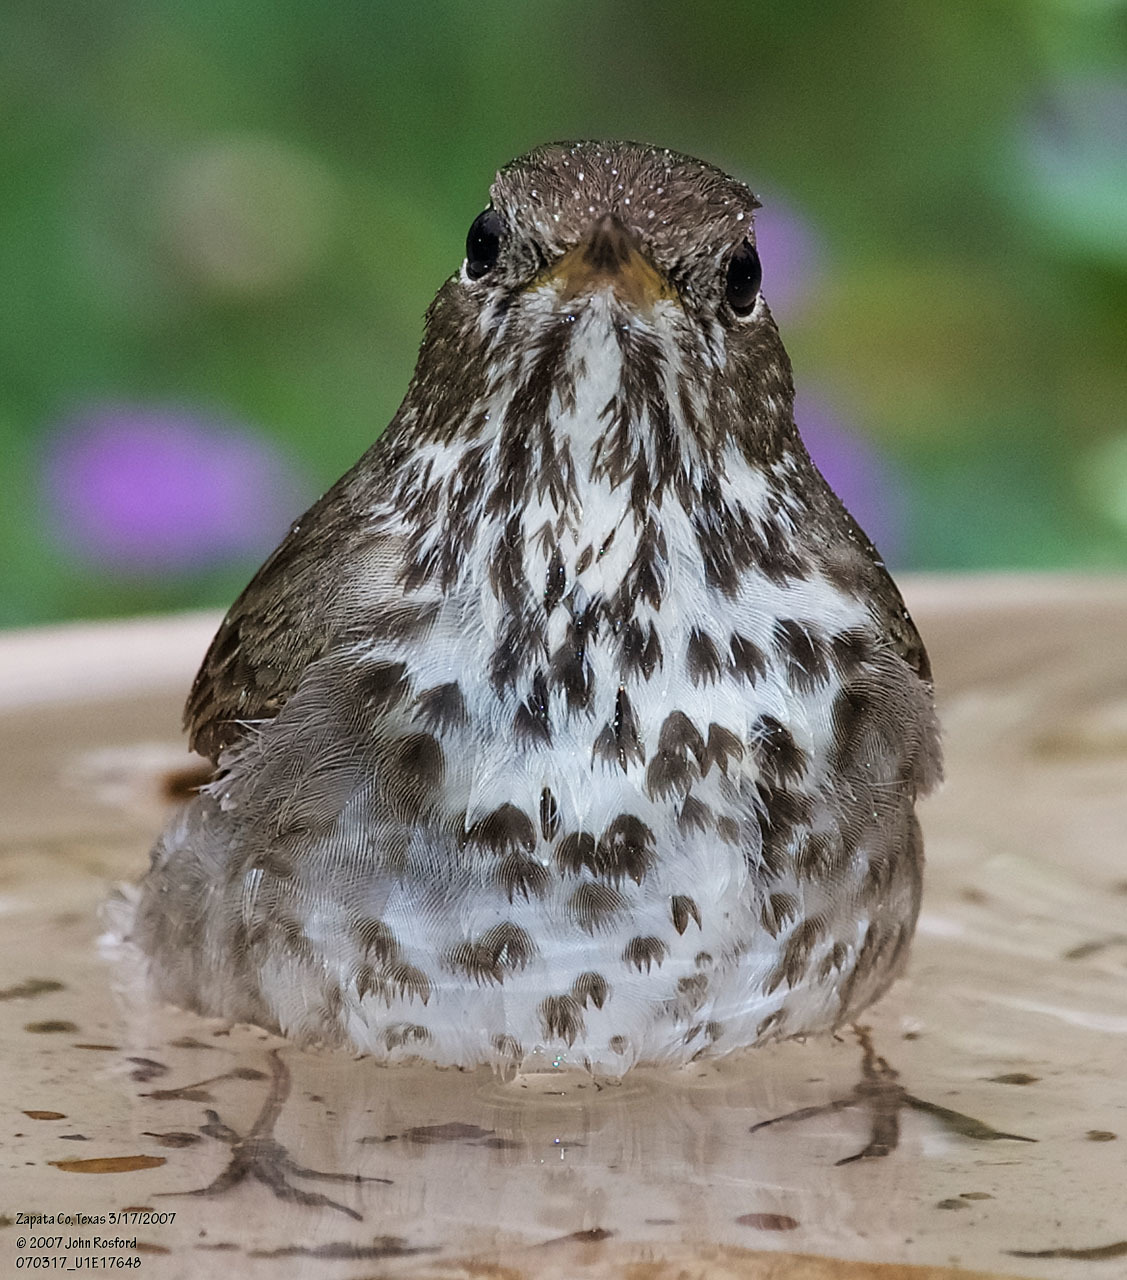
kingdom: Animalia
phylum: Chordata
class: Aves
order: Passeriformes
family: Turdidae
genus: Catharus
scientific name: Catharus guttatus
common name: Hermit thrush
